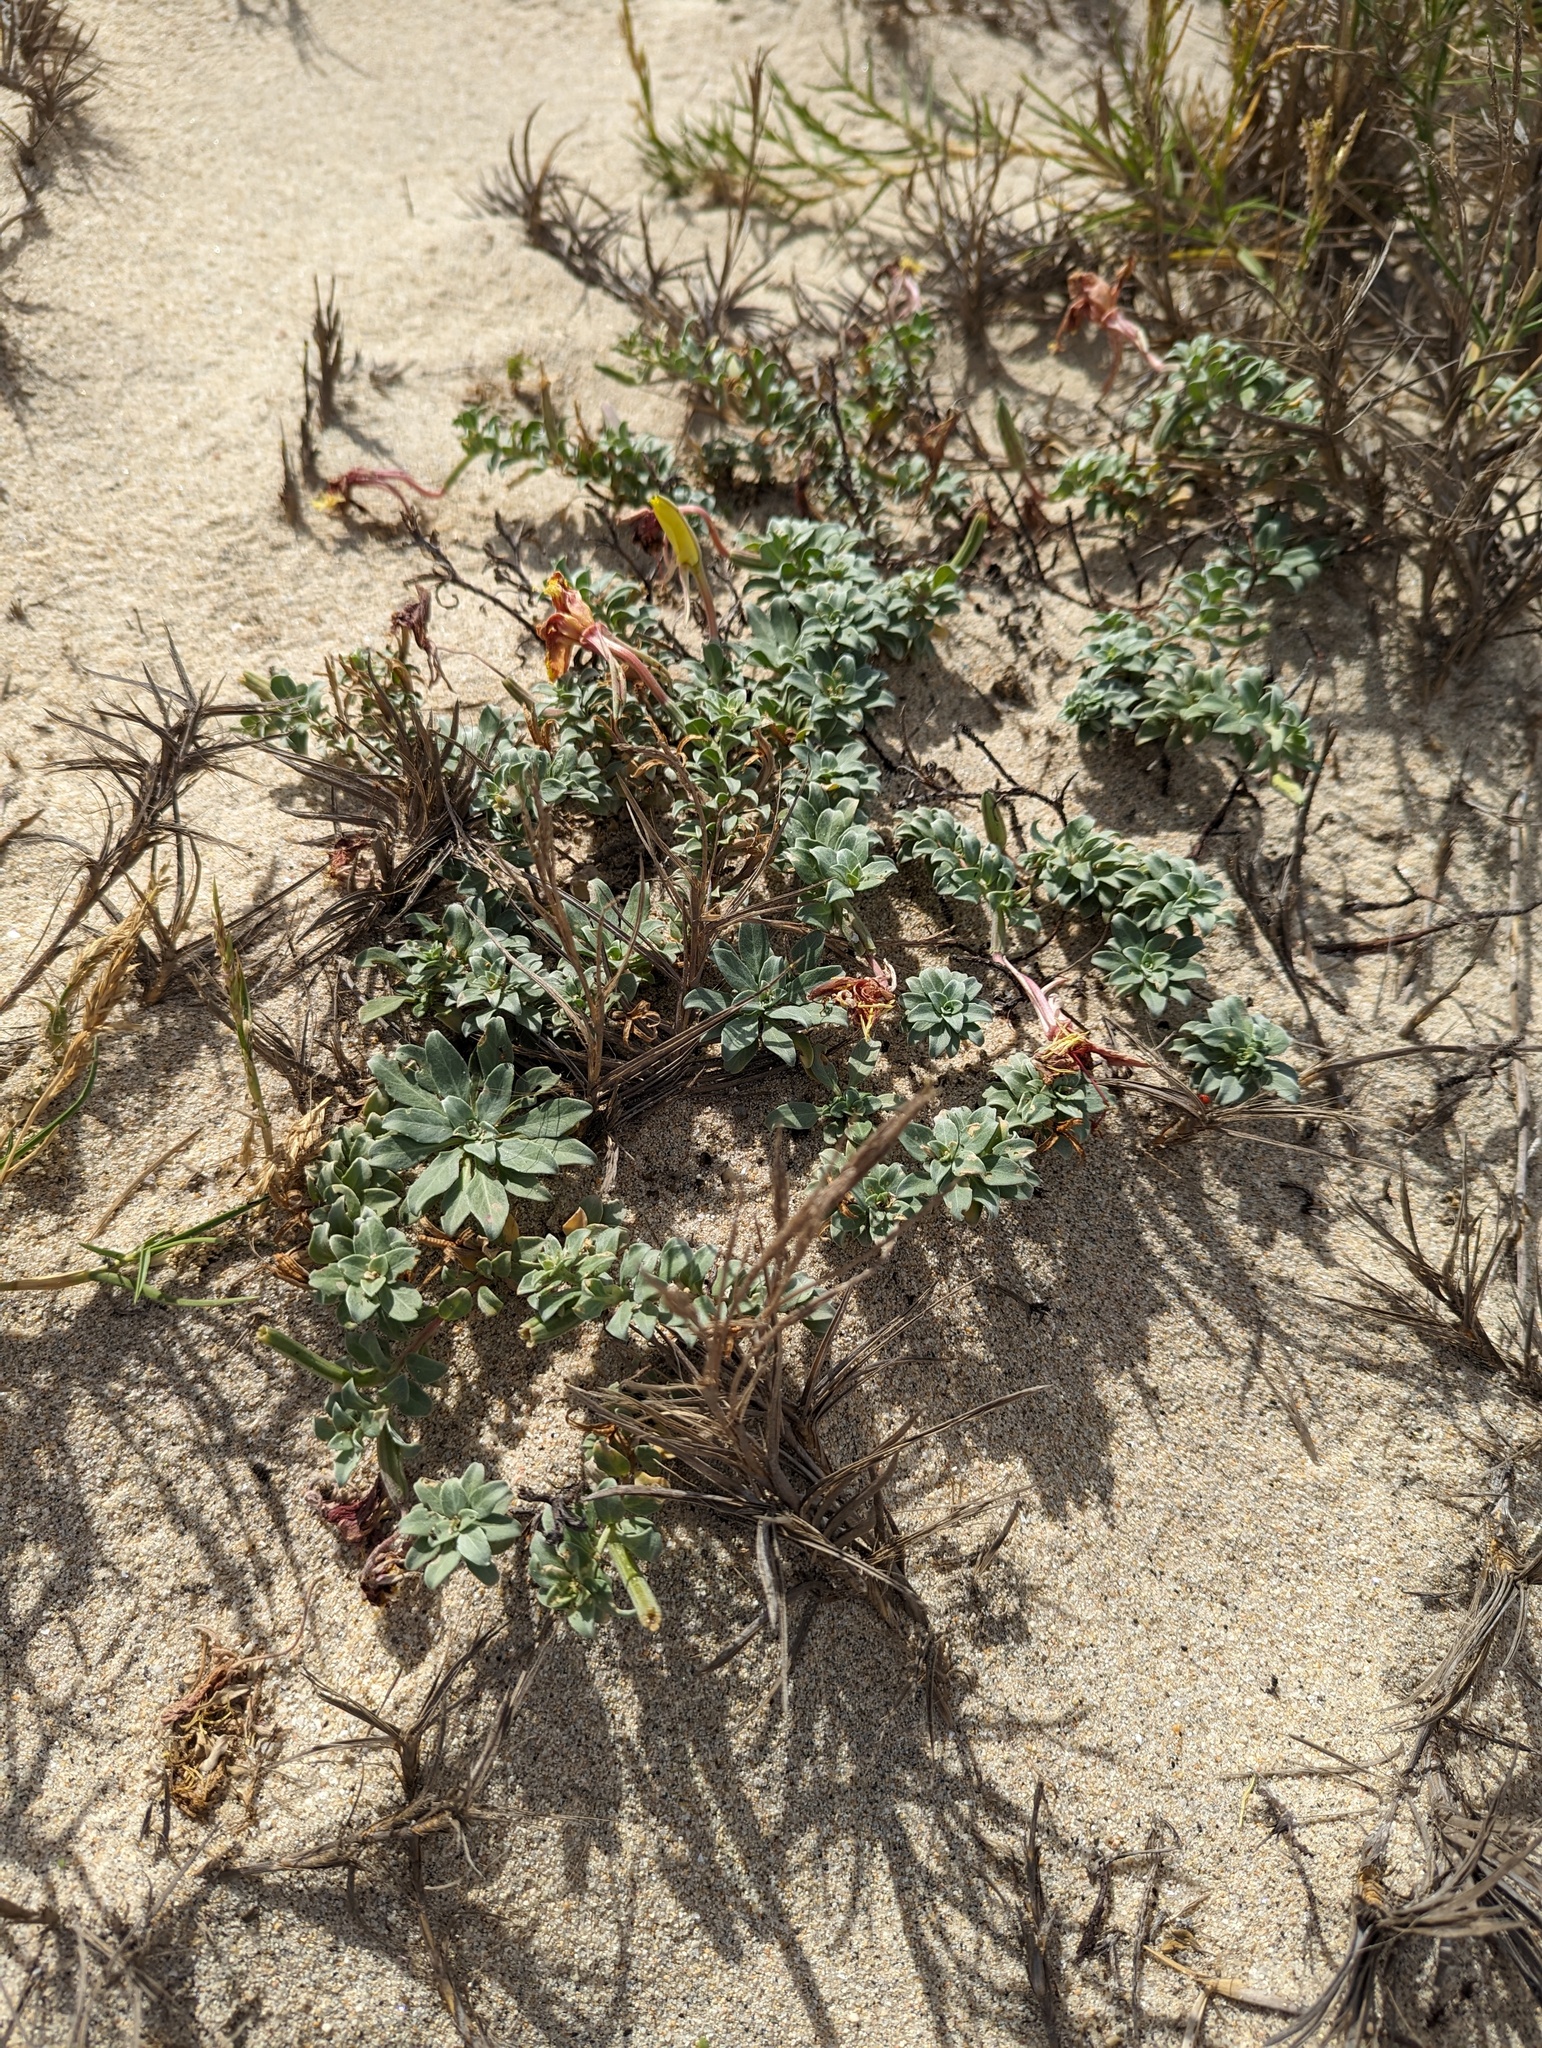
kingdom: Plantae
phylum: Tracheophyta
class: Magnoliopsida
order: Myrtales
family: Onagraceae
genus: Oenothera
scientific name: Oenothera drummondii
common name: Beach evening-primrose
